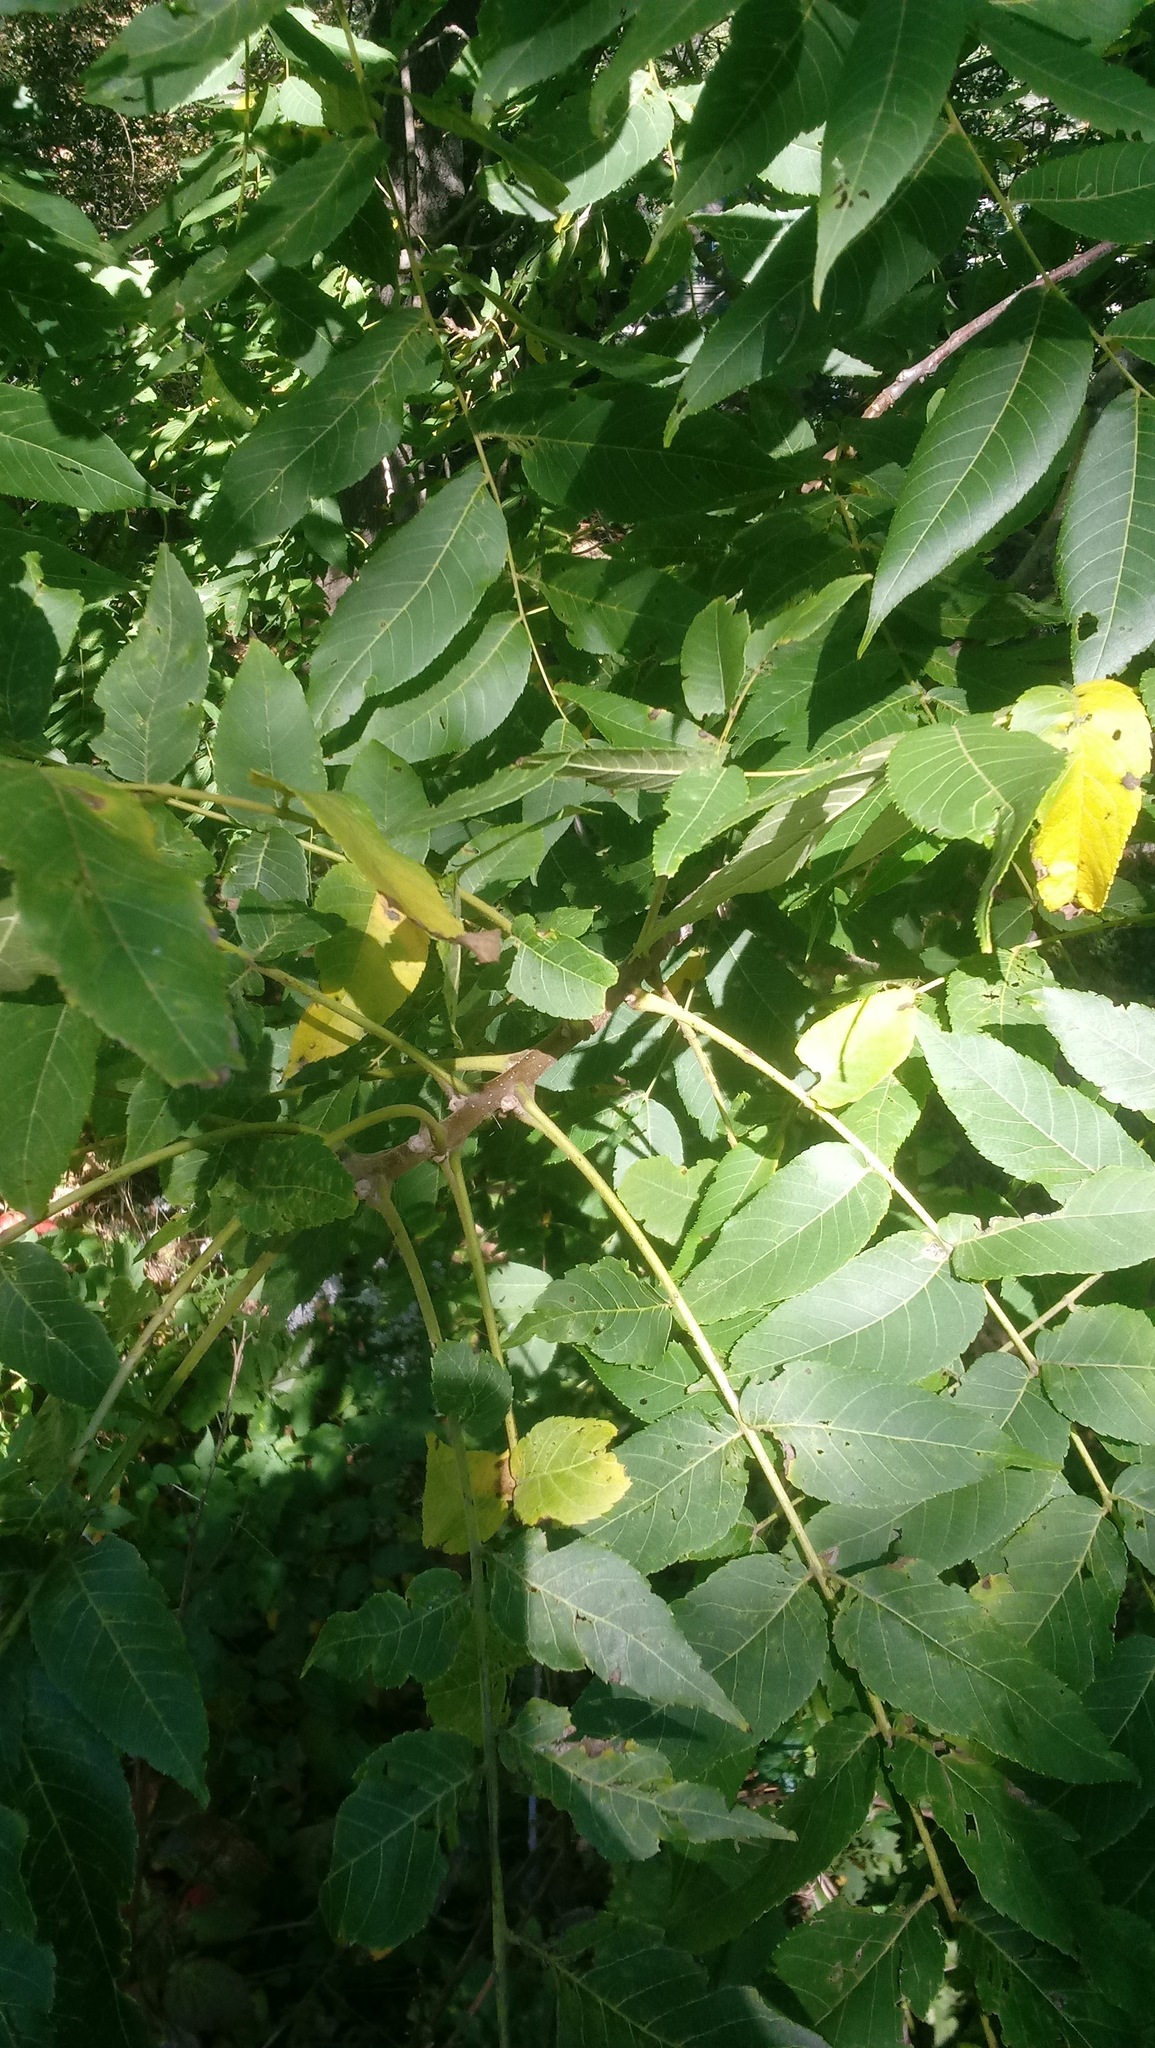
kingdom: Plantae
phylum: Tracheophyta
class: Magnoliopsida
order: Fagales
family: Juglandaceae
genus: Juglans
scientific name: Juglans nigra
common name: Black walnut
